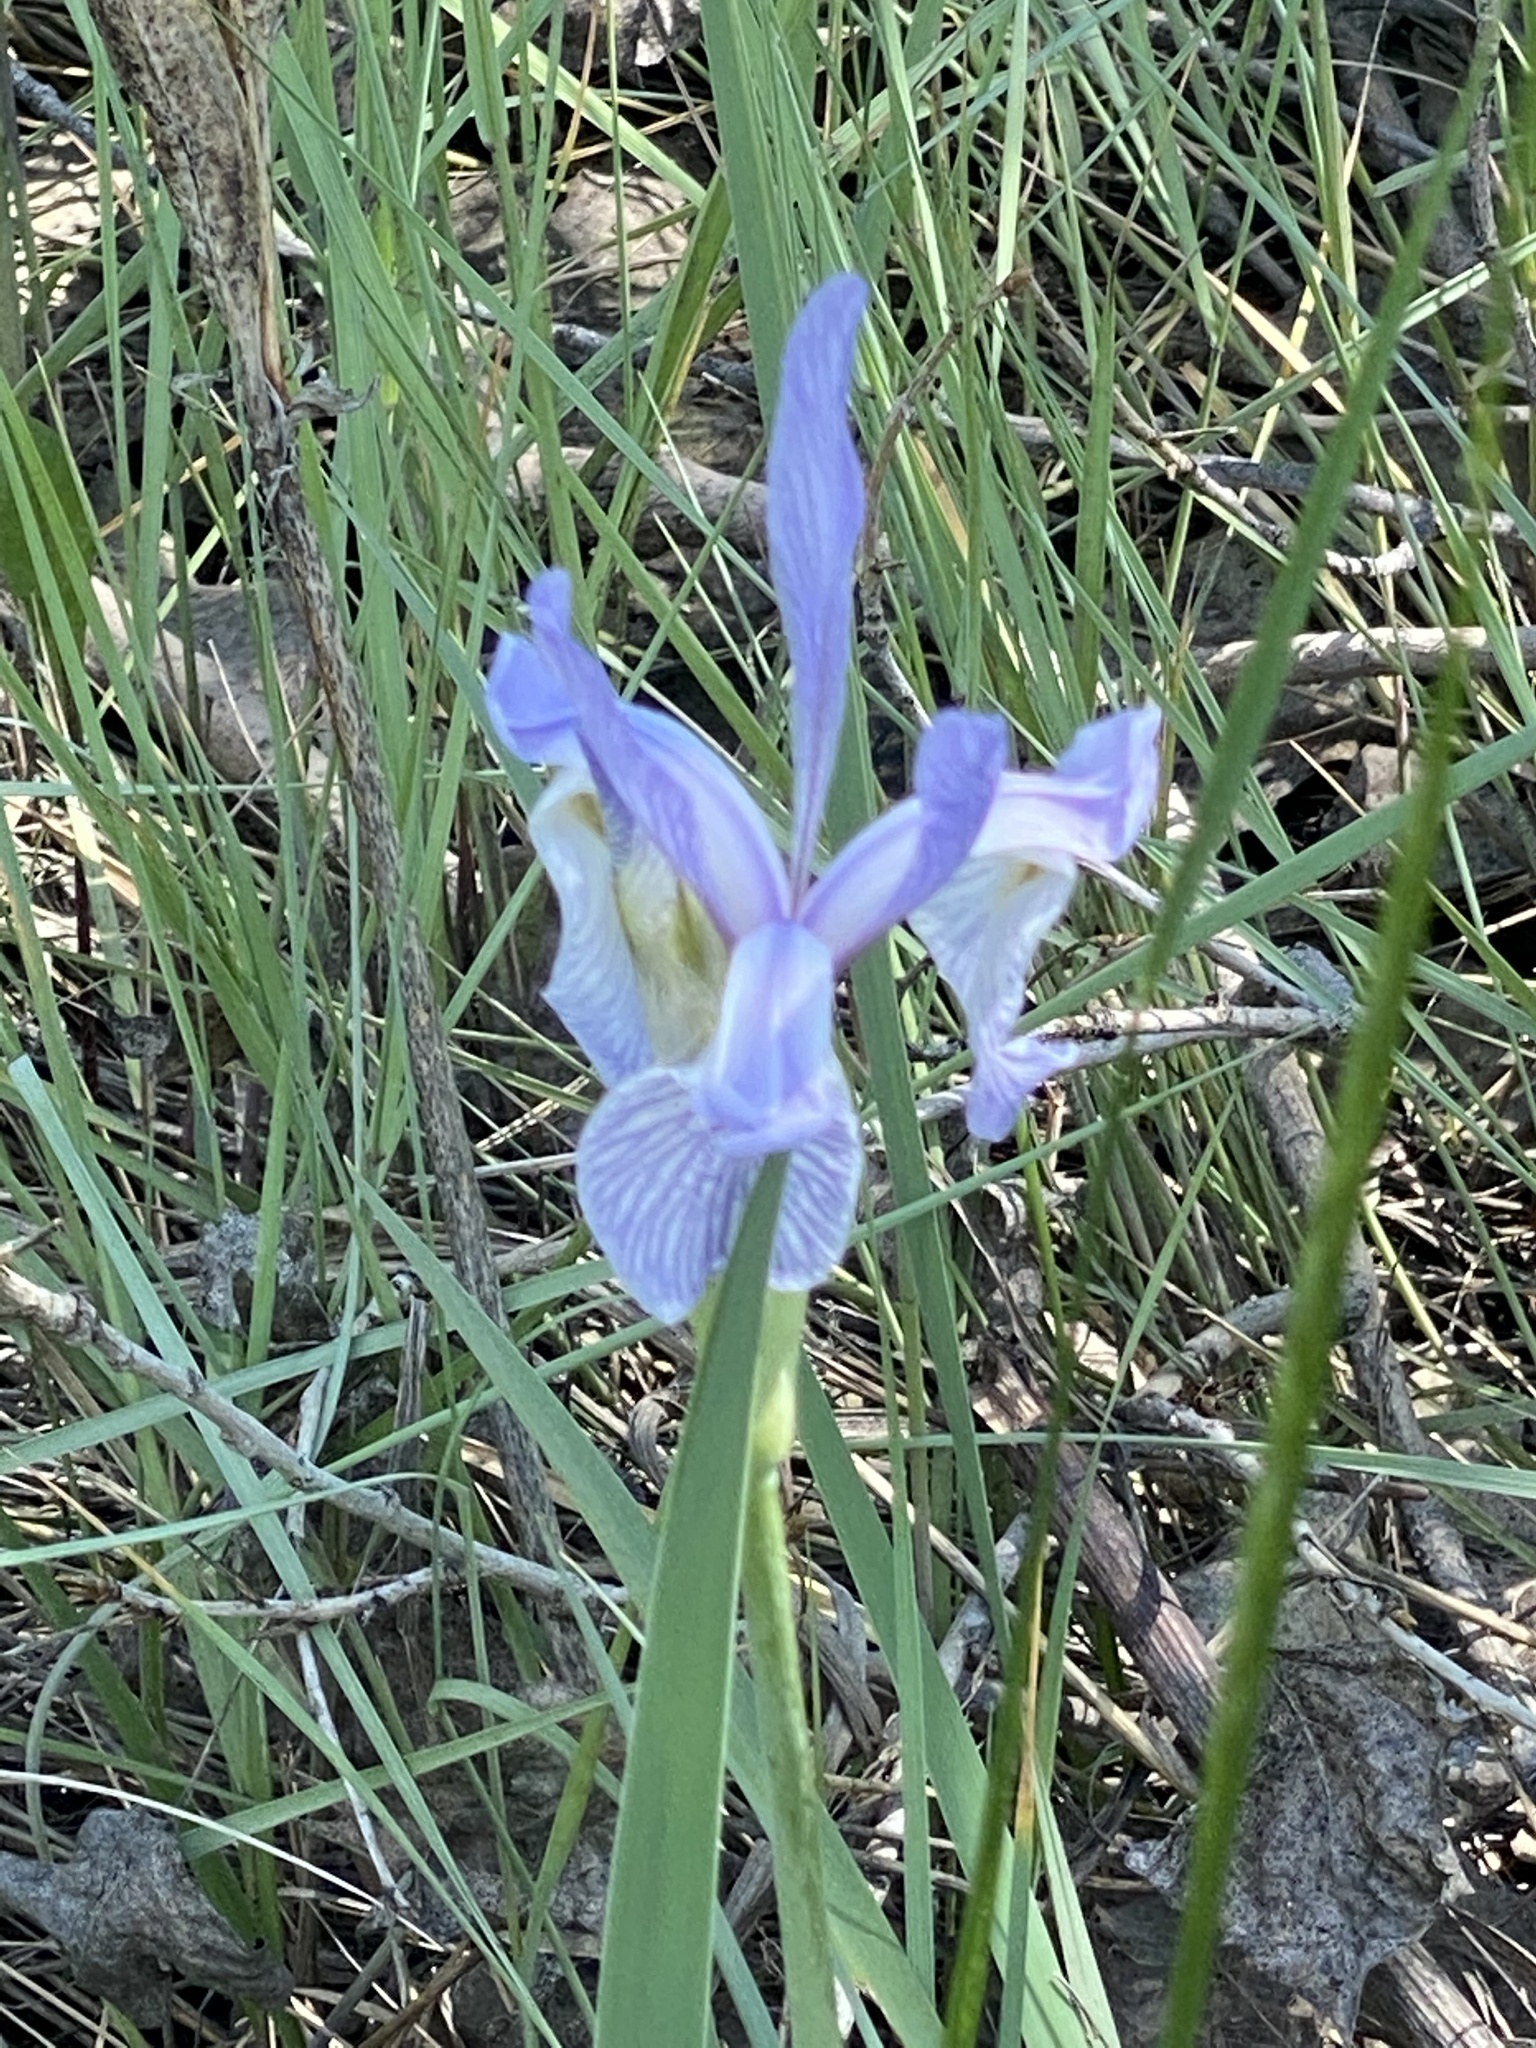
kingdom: Plantae
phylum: Tracheophyta
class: Liliopsida
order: Asparagales
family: Iridaceae
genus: Iris
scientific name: Iris missouriensis
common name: Rocky mountain iris
